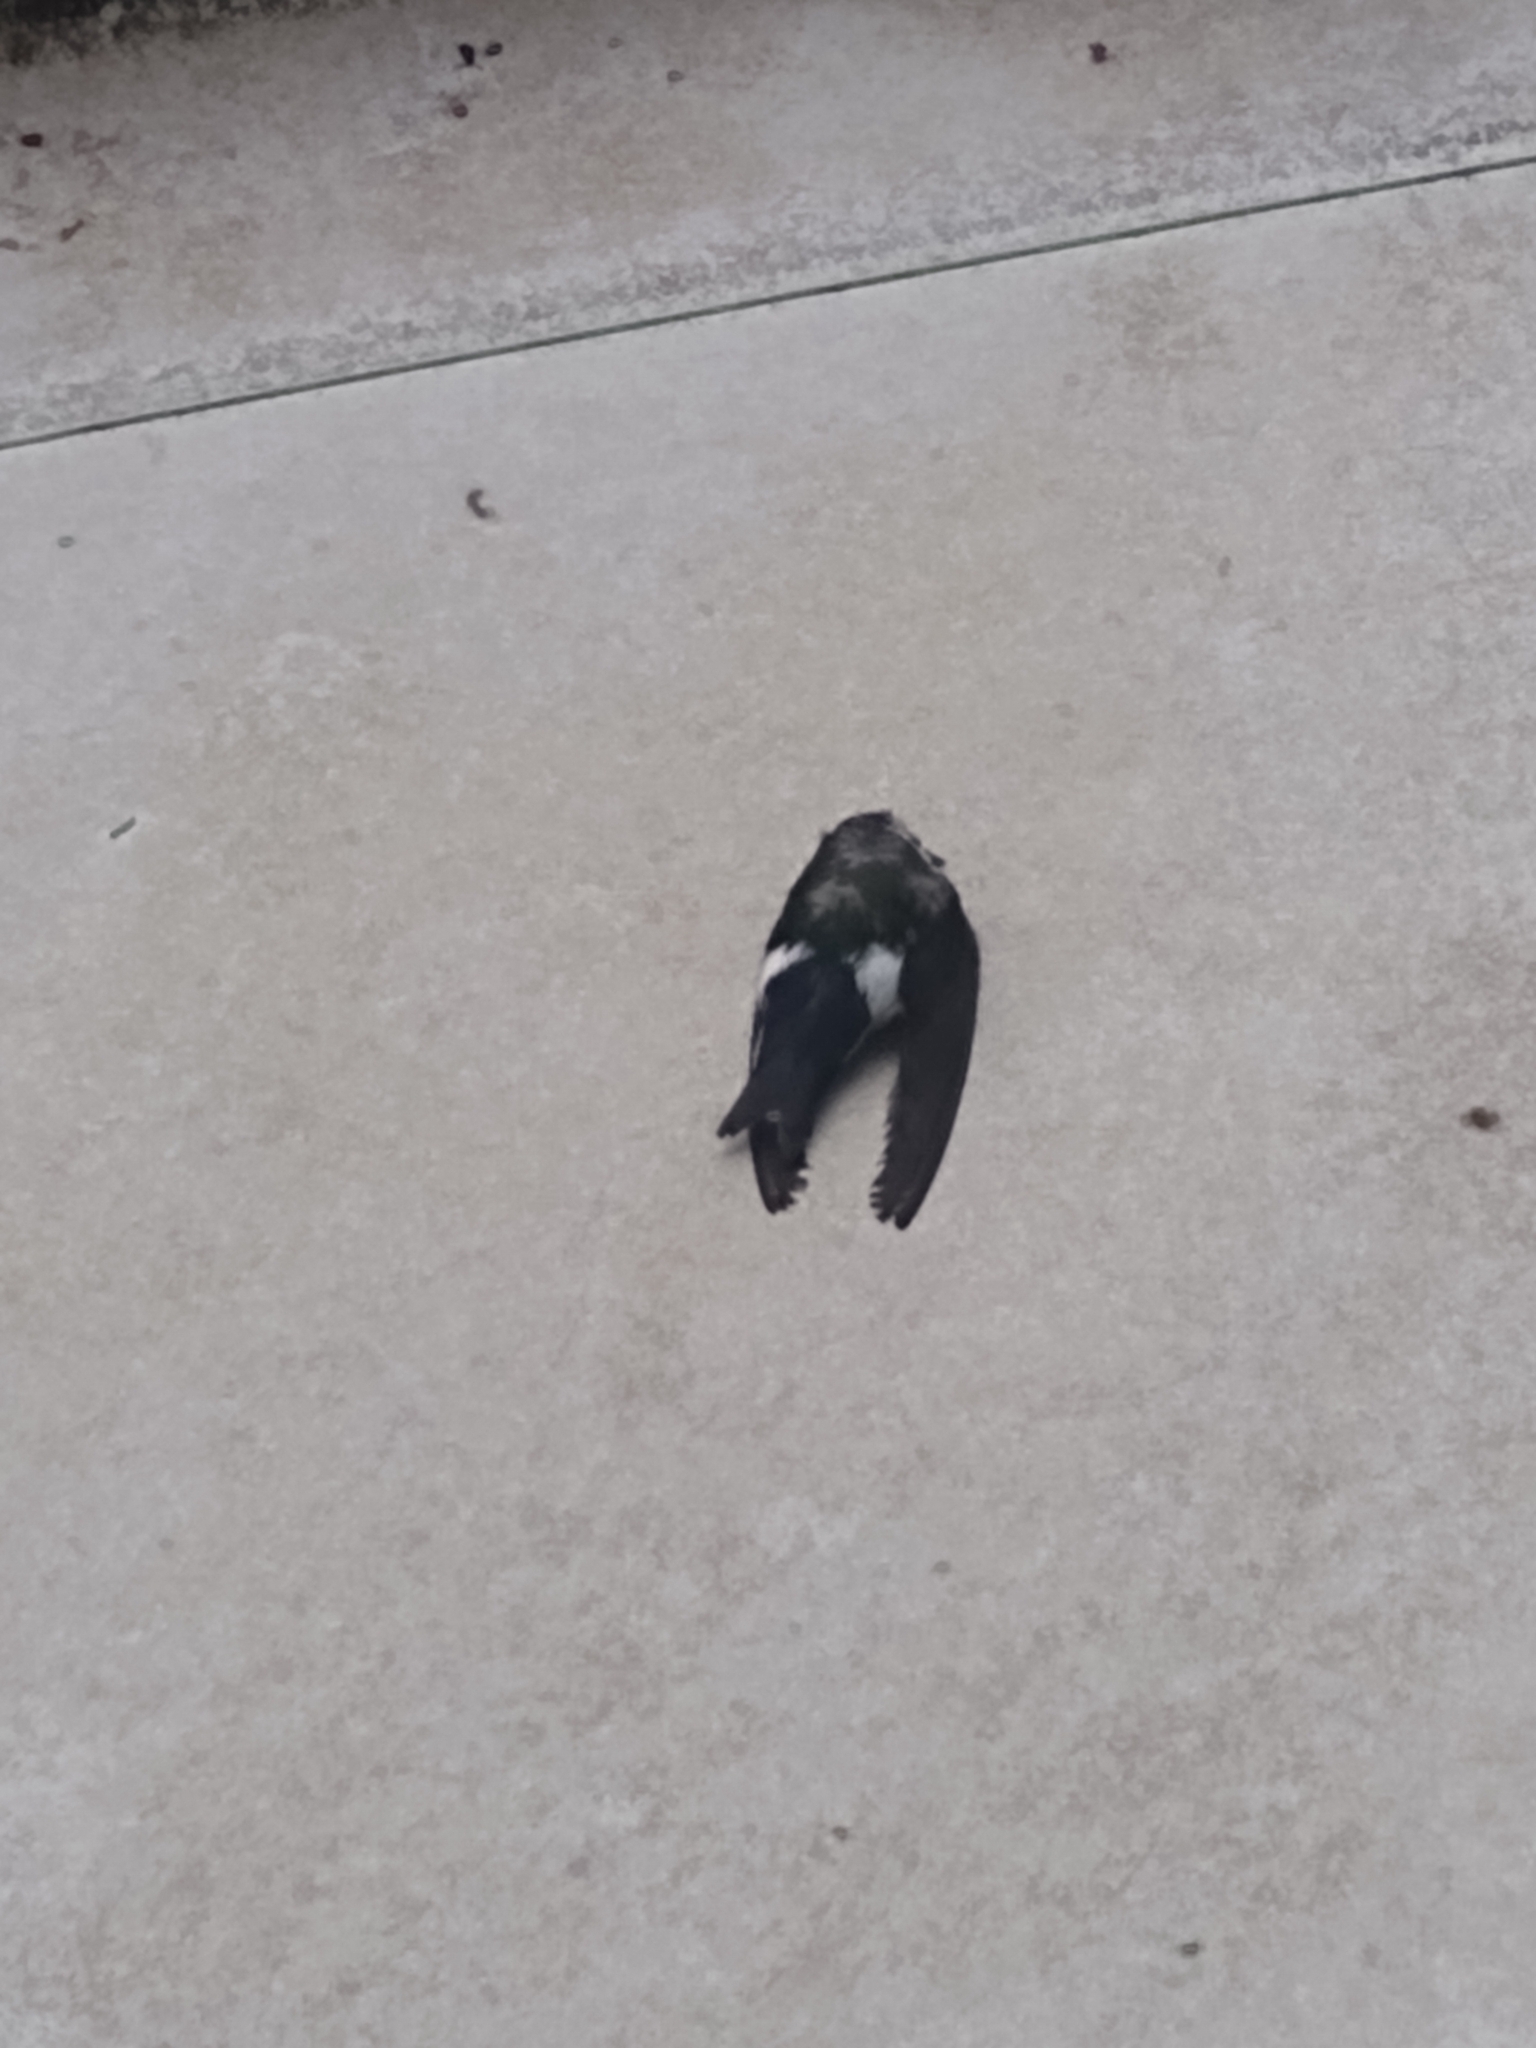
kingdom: Animalia
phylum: Chordata
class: Aves
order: Passeriformes
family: Hirundinidae
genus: Tachycineta
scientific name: Tachycineta thalassina
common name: Violet-green swallow
